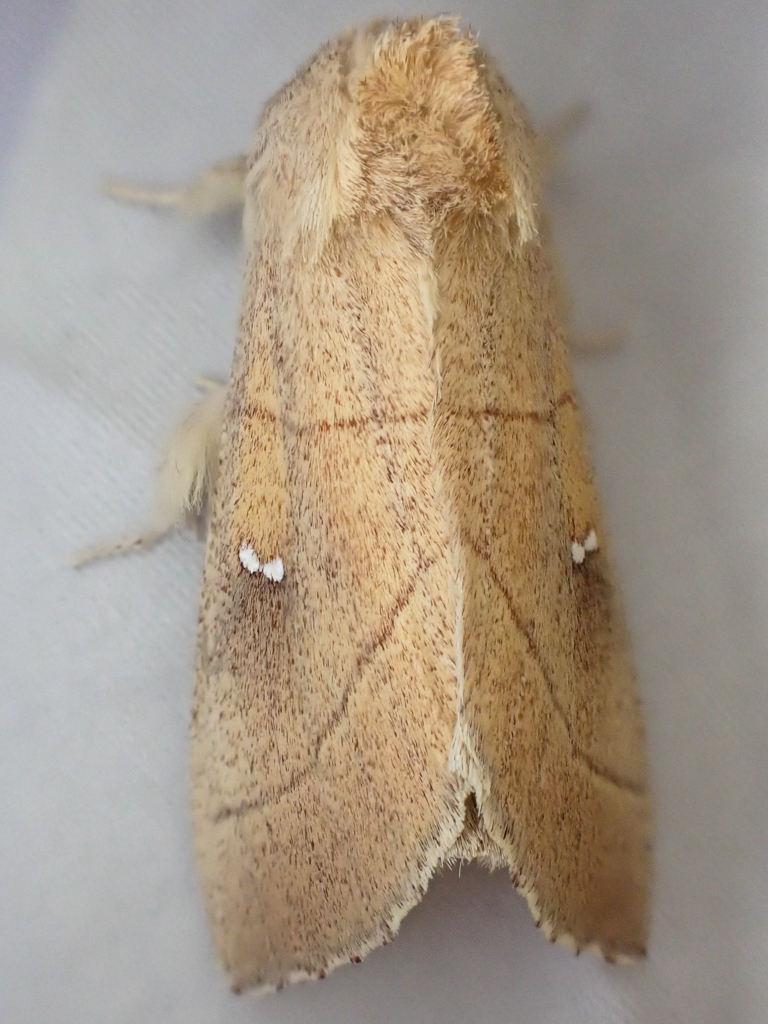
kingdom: Animalia
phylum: Arthropoda
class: Insecta
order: Lepidoptera
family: Notodontidae
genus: Nadata
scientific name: Nadata oregonensis
